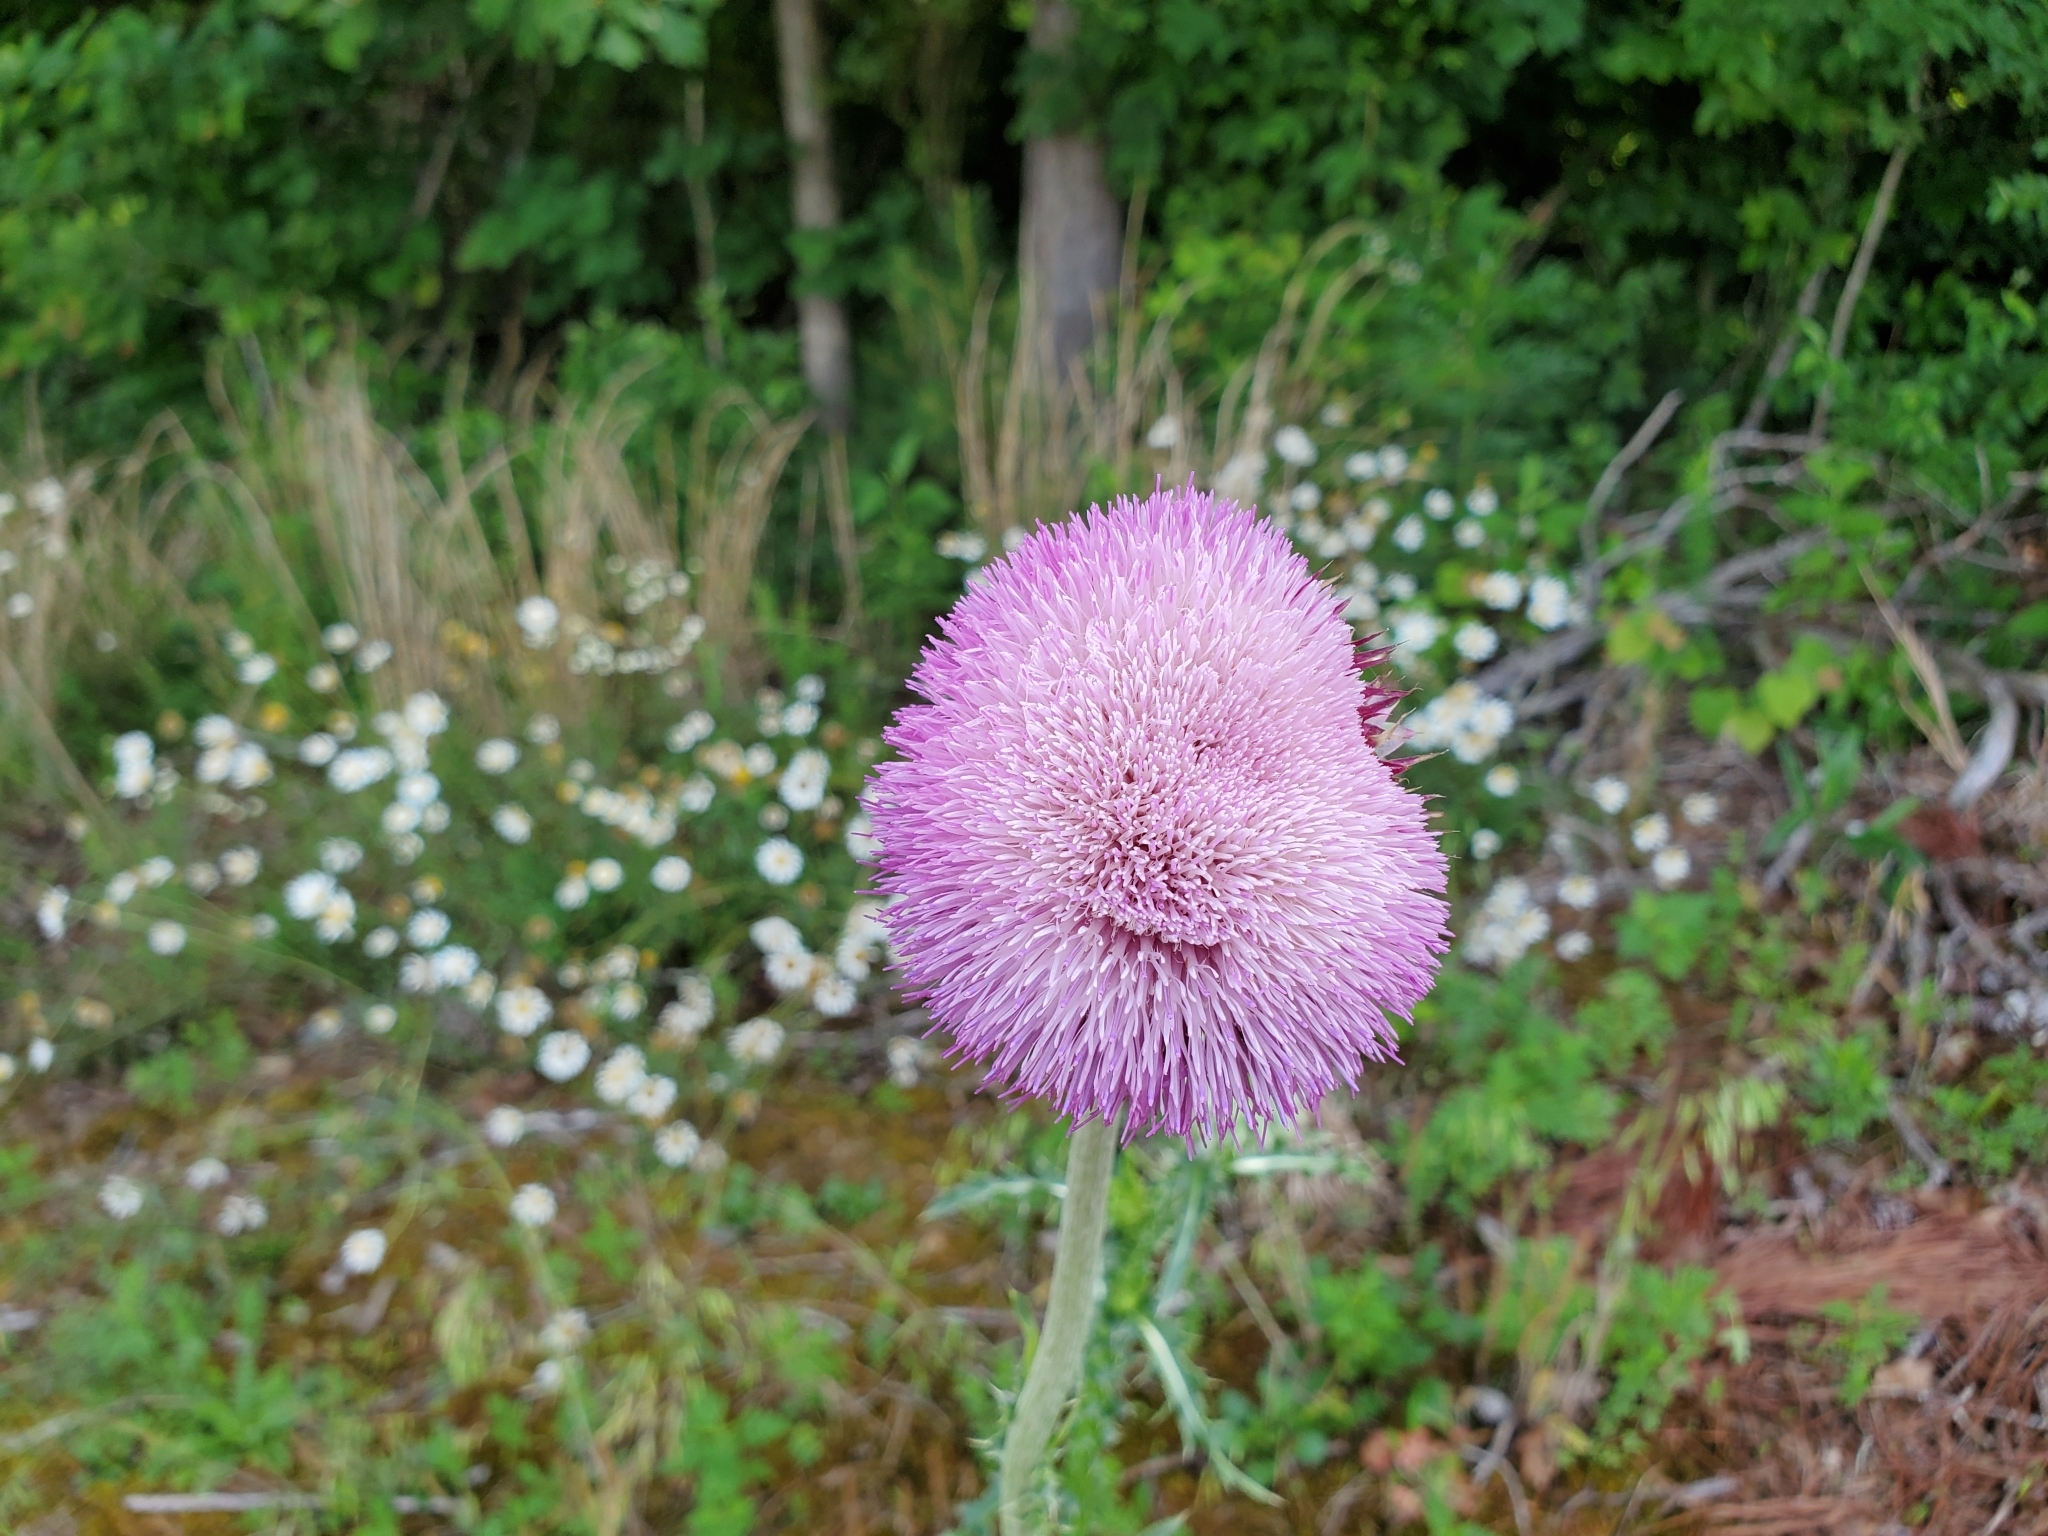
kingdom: Plantae
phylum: Tracheophyta
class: Magnoliopsida
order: Asterales
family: Asteraceae
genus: Carduus
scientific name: Carduus nutans
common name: Musk thistle
